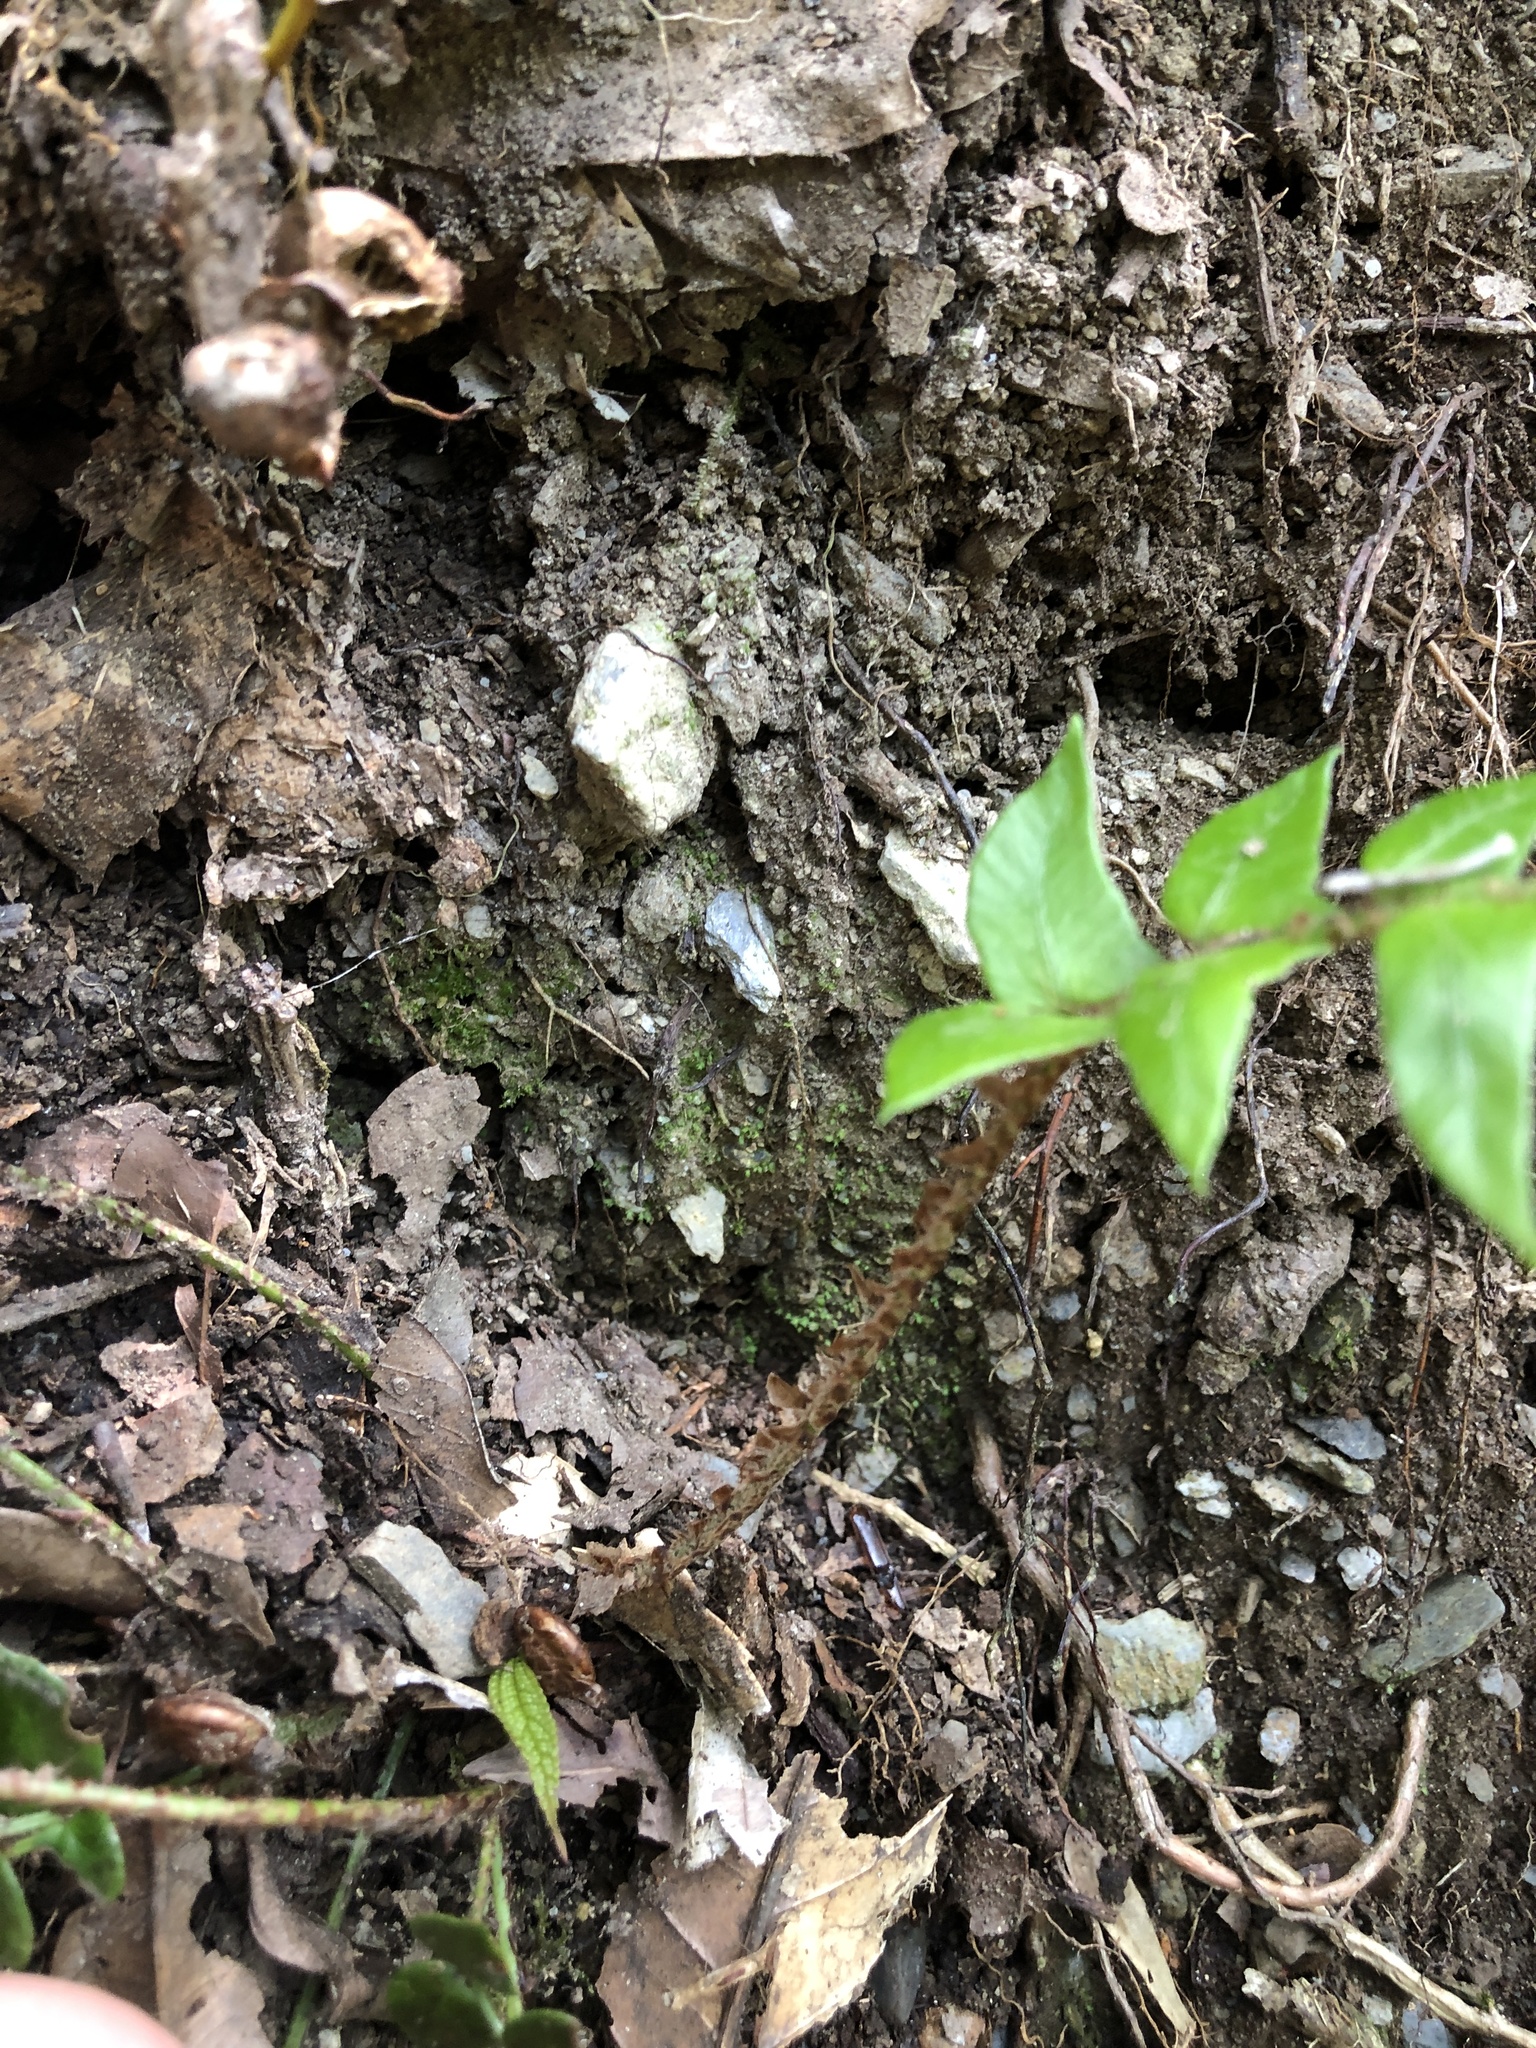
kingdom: Plantae
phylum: Tracheophyta
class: Polypodiopsida
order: Polypodiales
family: Dryopteridaceae
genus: Polystichum
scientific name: Polystichum lepidocaulon
